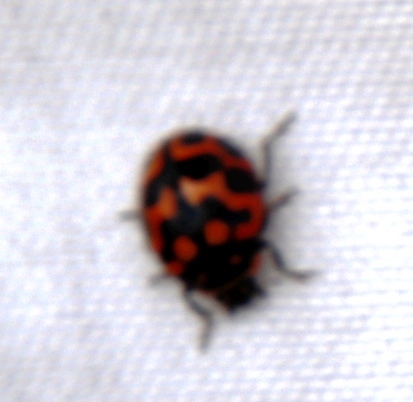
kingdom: Animalia
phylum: Arthropoda
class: Insecta
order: Coleoptera
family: Coccinellidae
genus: Lioadalia
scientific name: Lioadalia flavomaculata
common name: Ladybird beetle
